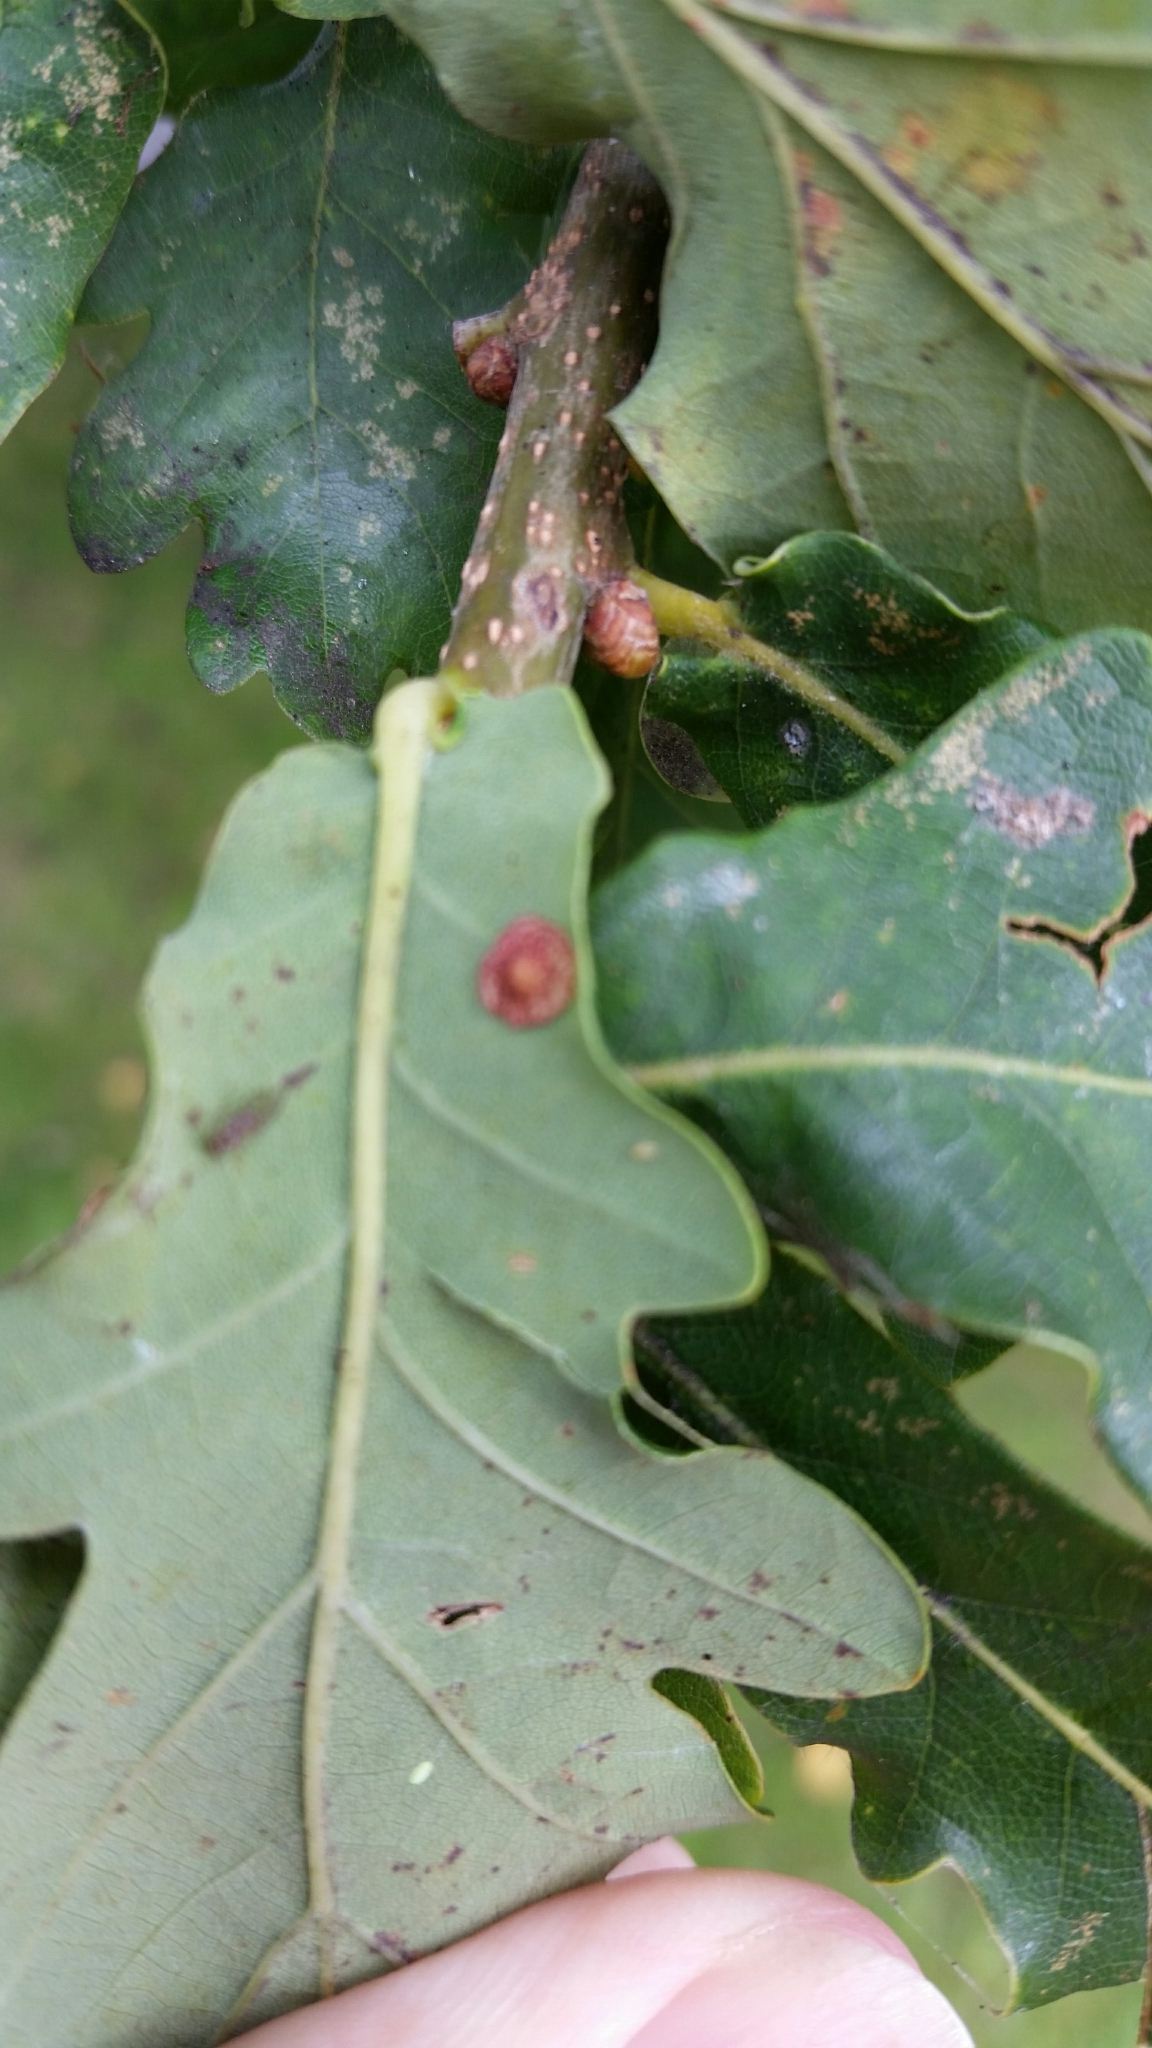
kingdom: Animalia
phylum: Arthropoda
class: Insecta
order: Hymenoptera
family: Cynipidae
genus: Neuroterus
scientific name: Neuroterus quercusbaccarum
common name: Common spangle gall
